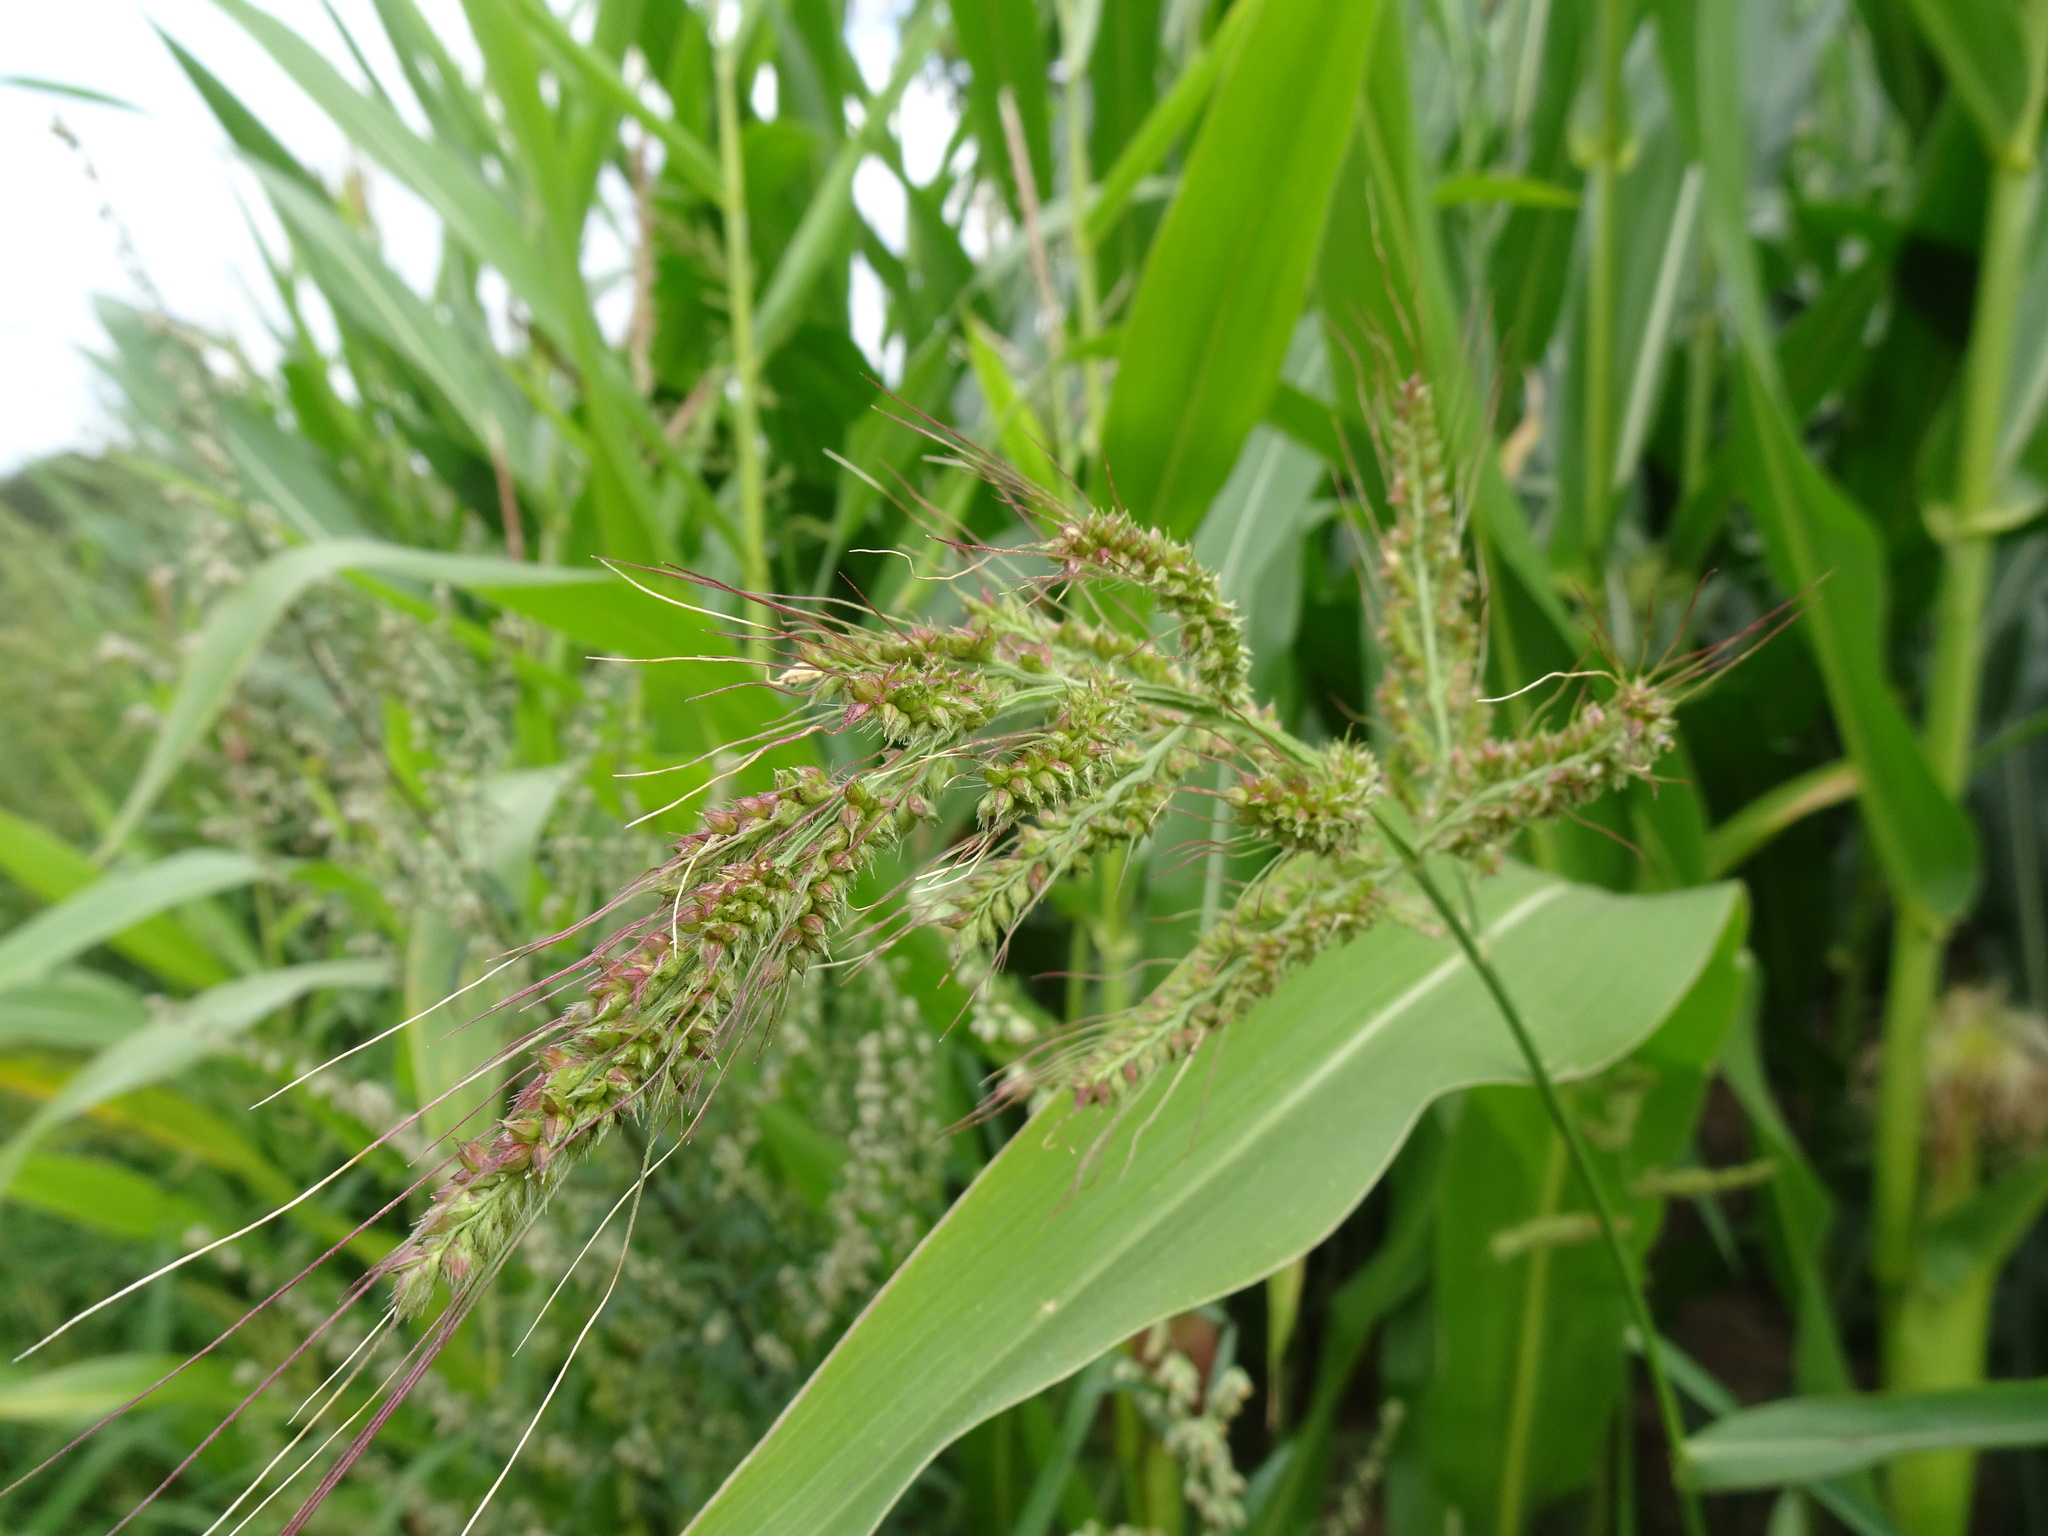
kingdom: Plantae
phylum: Tracheophyta
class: Liliopsida
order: Poales
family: Poaceae
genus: Echinochloa
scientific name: Echinochloa crus-galli
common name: Cockspur
